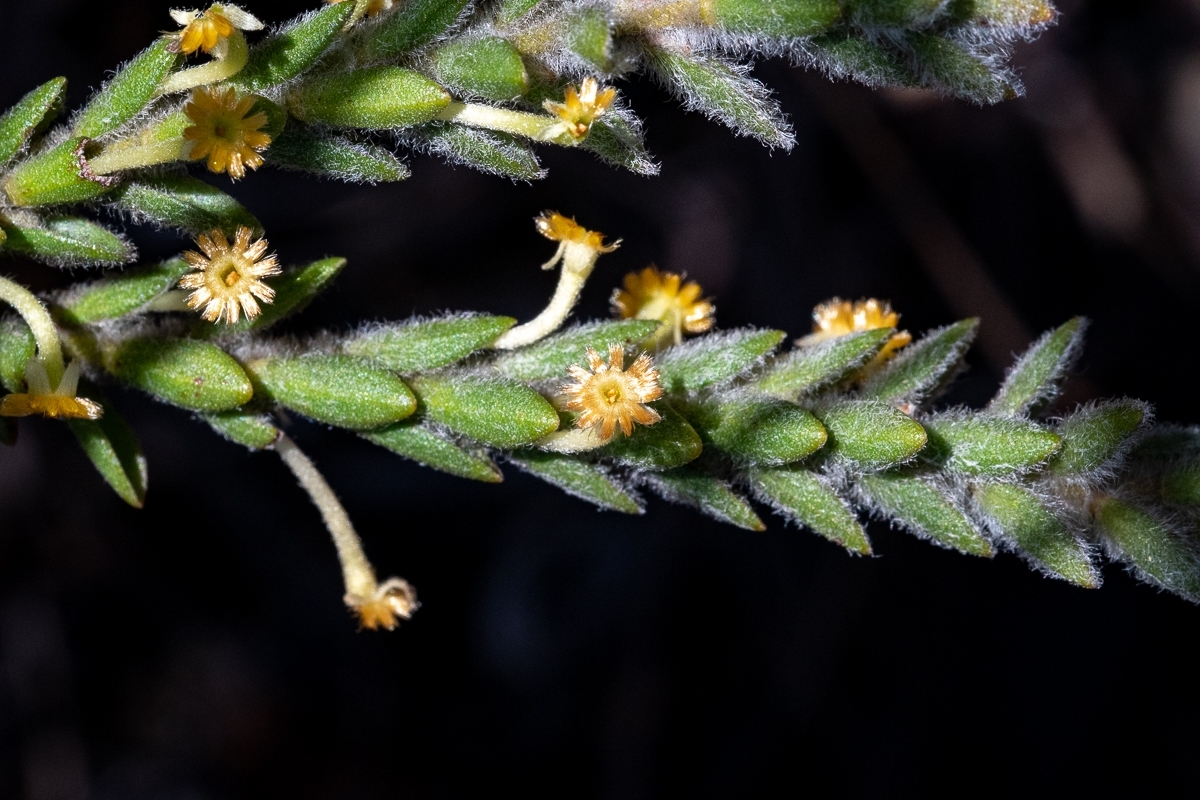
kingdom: Plantae
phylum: Tracheophyta
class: Magnoliopsida
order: Malvales
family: Thymelaeaceae
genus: Struthiola
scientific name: Struthiola tomentosa
